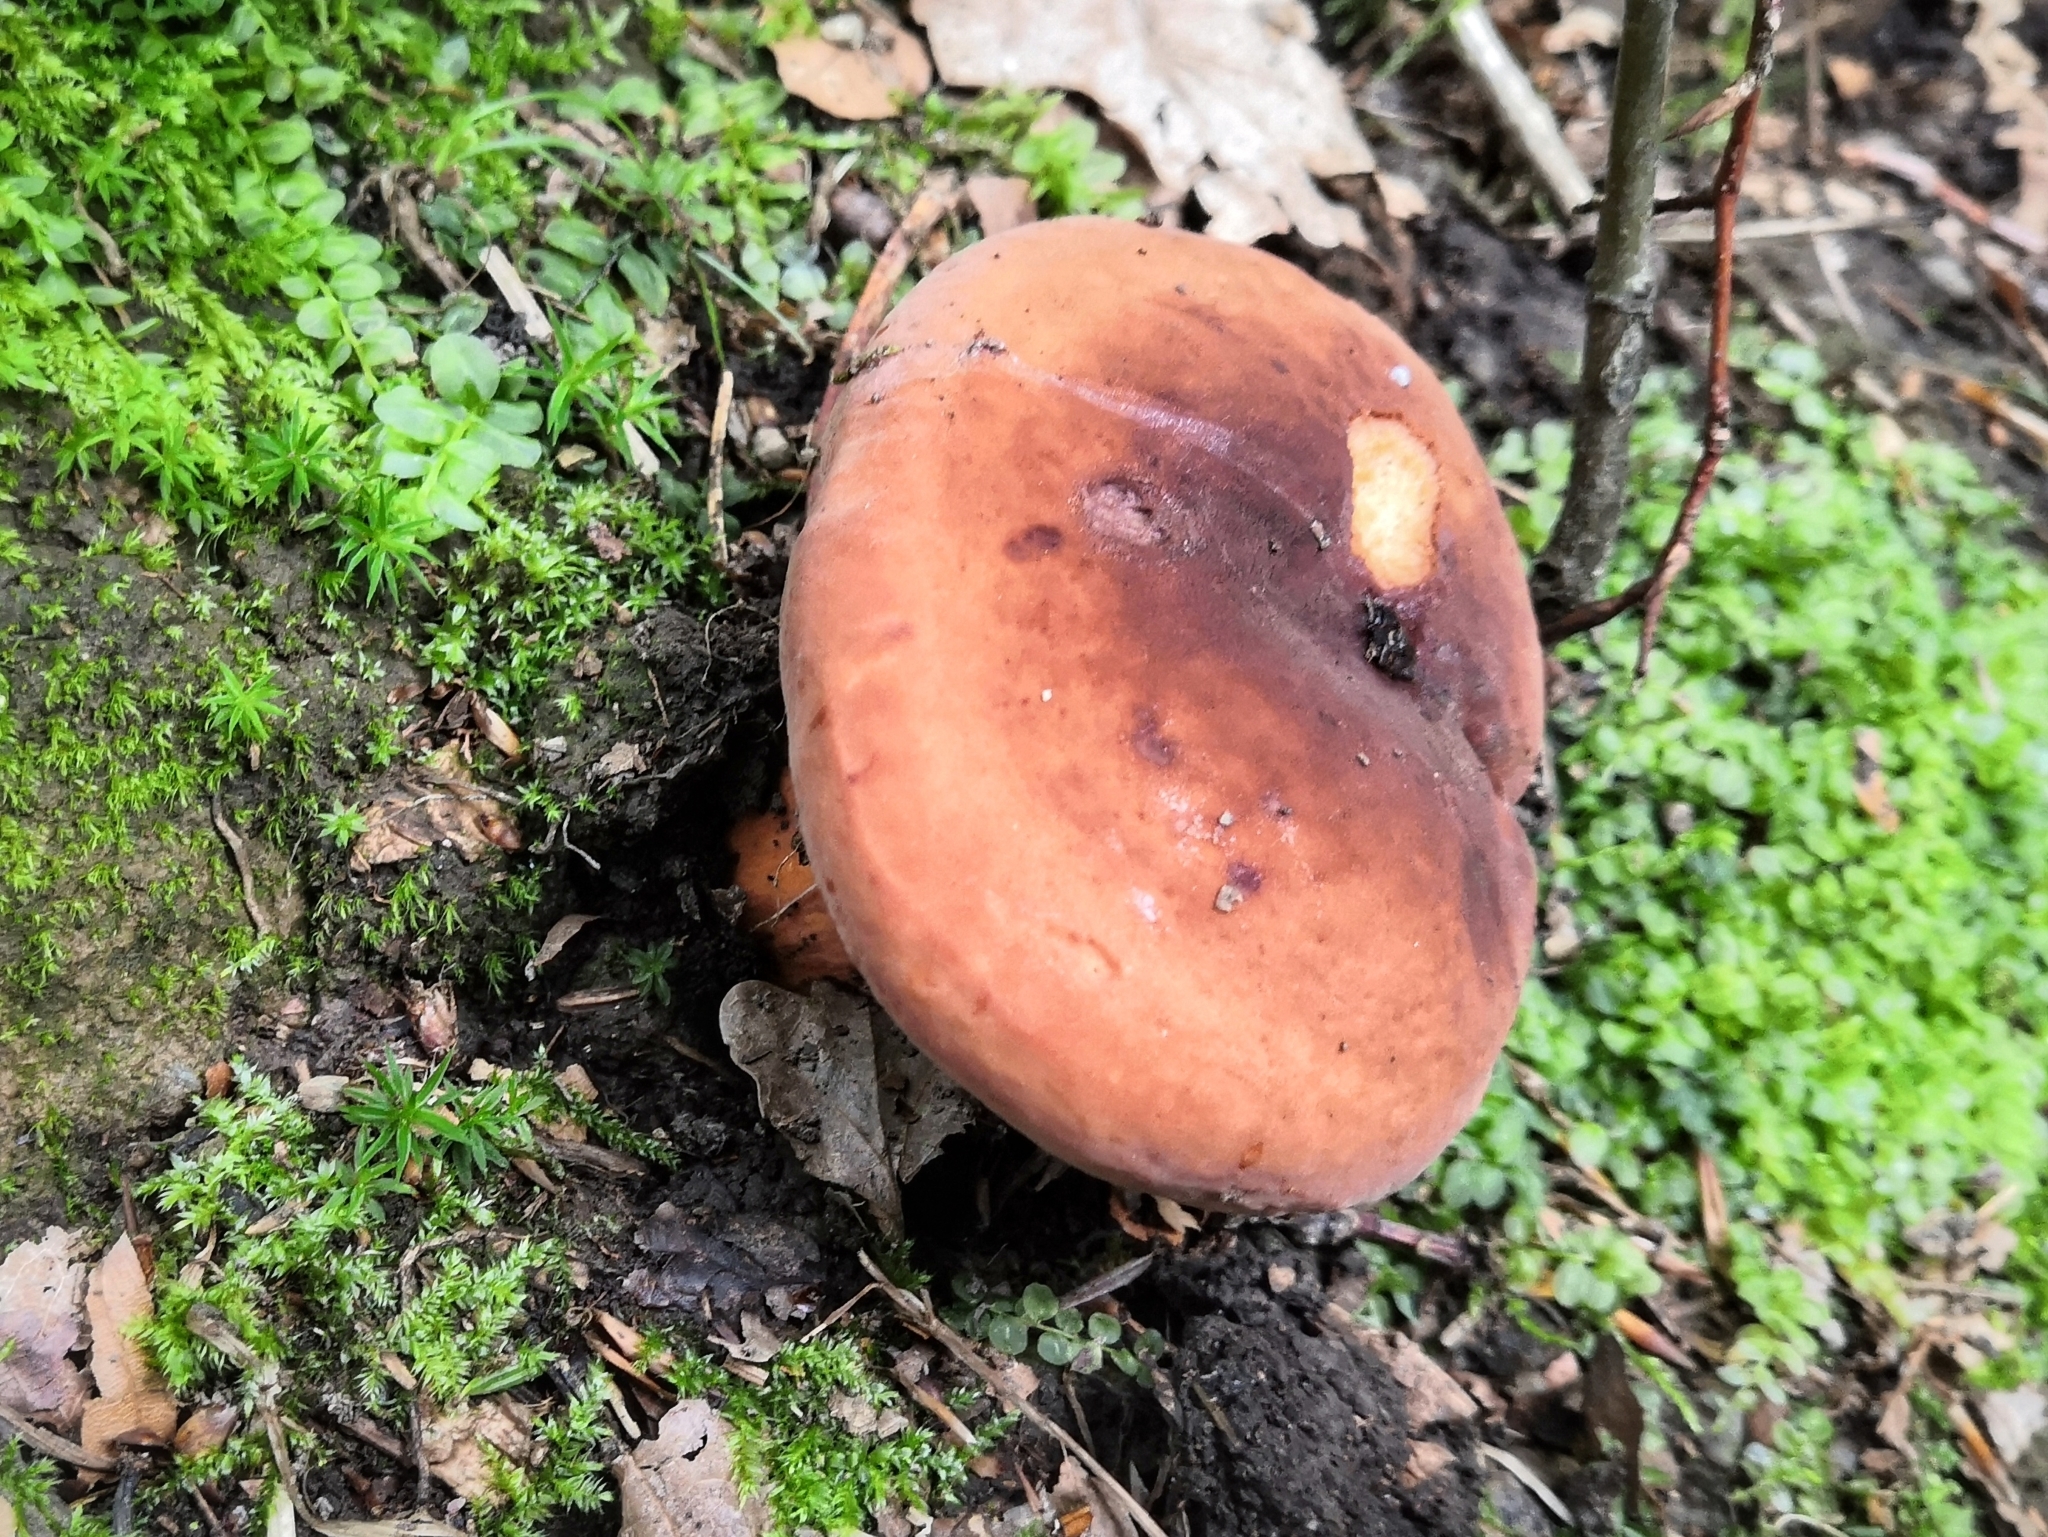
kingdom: Fungi
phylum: Basidiomycota
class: Agaricomycetes
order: Russulales
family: Russulaceae
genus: Lactifluus
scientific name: Lactifluus volemus
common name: Fishy milkcap
